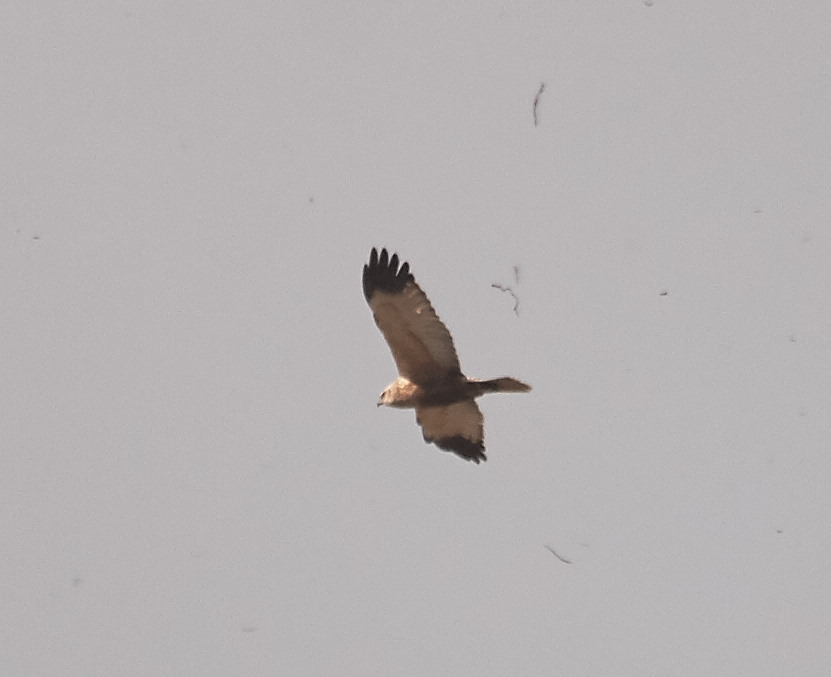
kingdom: Animalia
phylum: Chordata
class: Aves
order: Accipitriformes
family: Accipitridae
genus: Circus
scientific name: Circus aeruginosus
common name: Western marsh harrier
